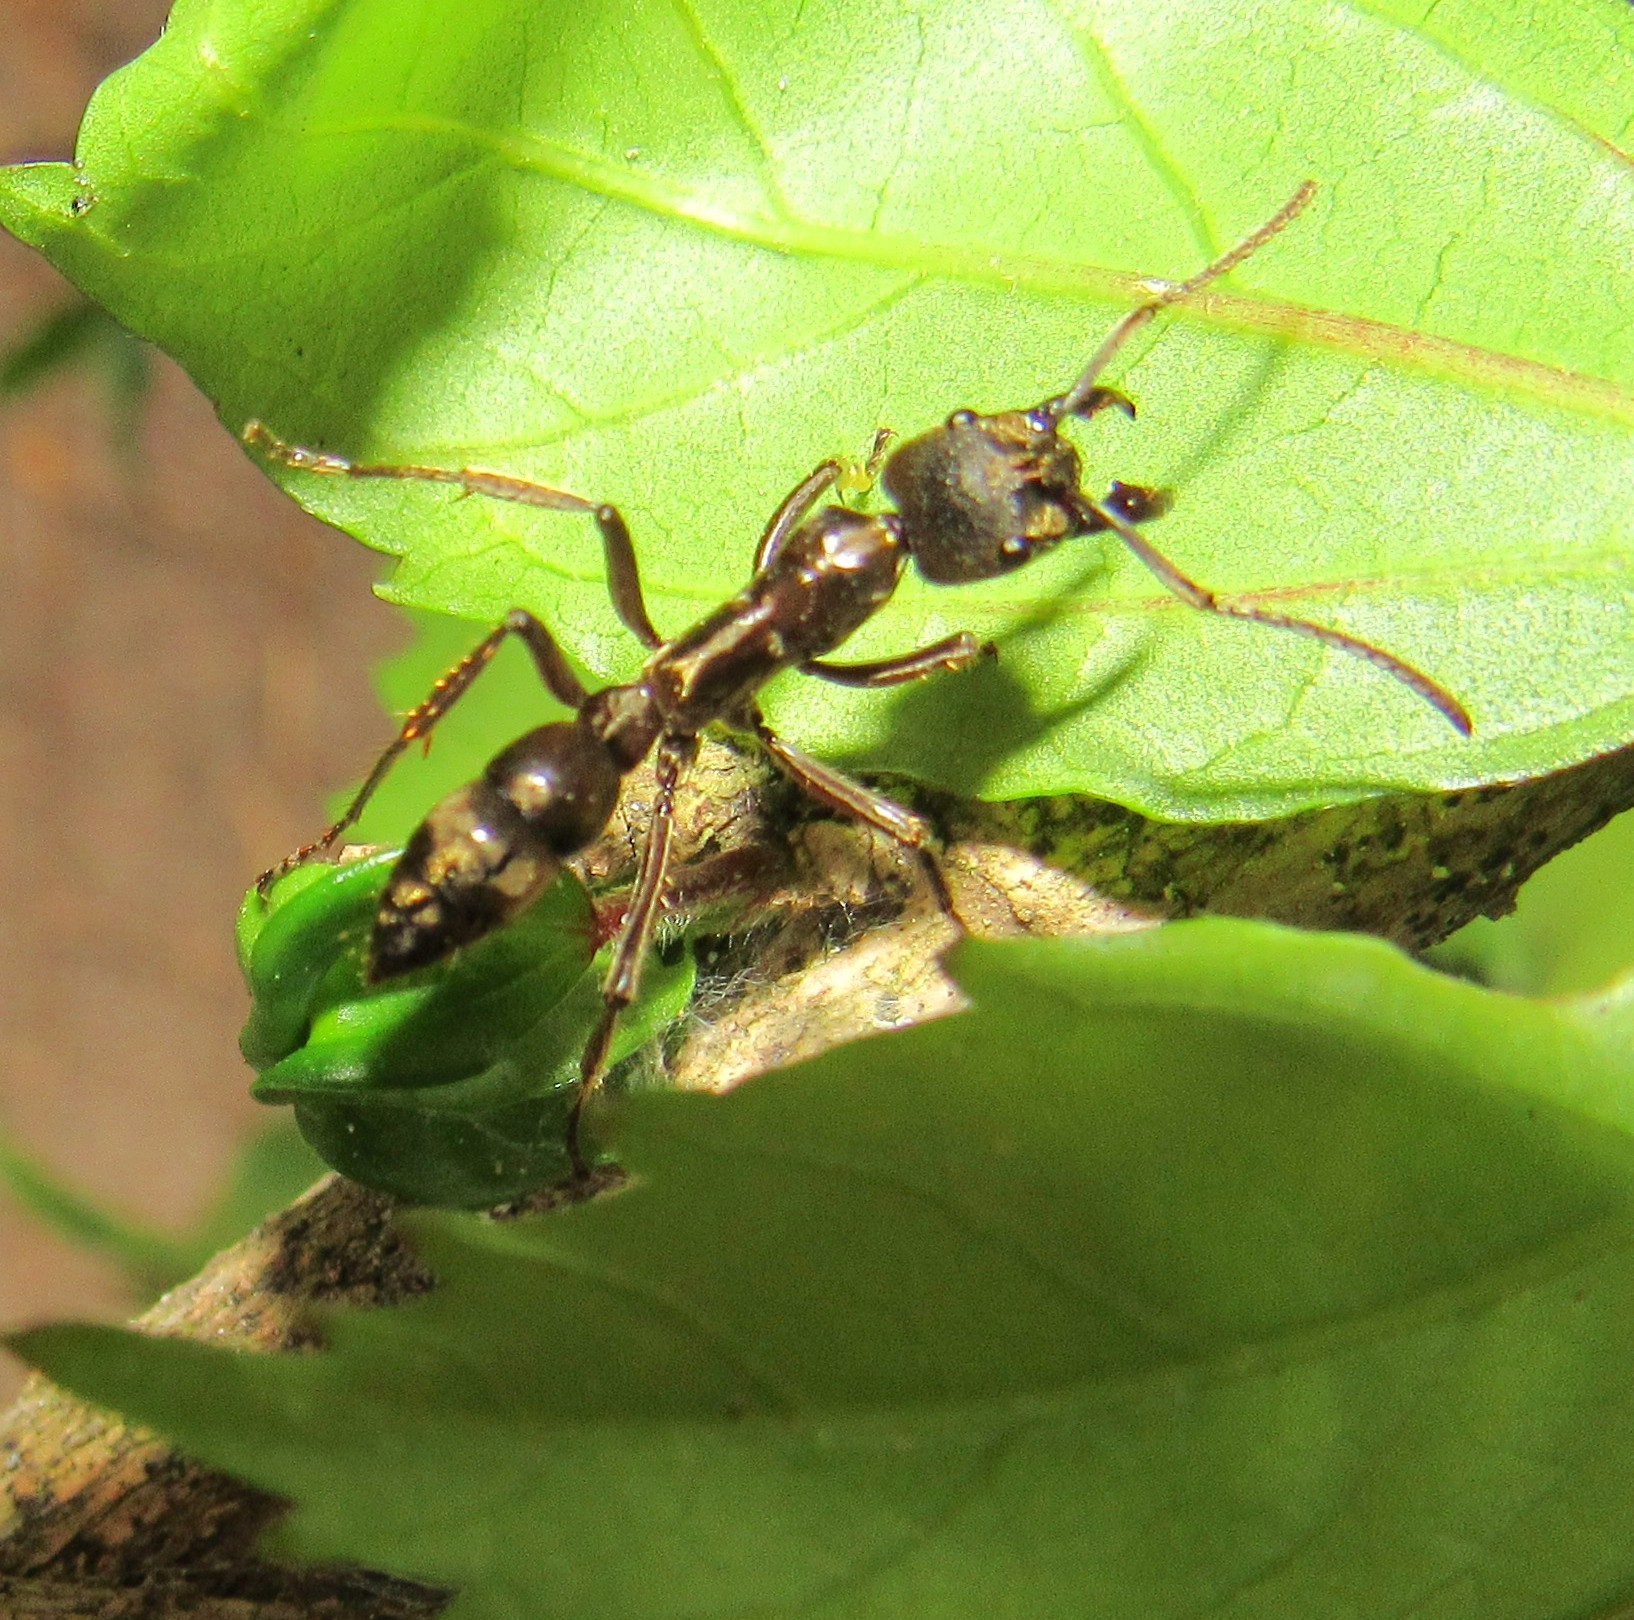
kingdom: Animalia
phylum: Arthropoda
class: Insecta
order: Hymenoptera
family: Formicidae
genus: Pachycondyla
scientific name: Pachycondyla villosa
